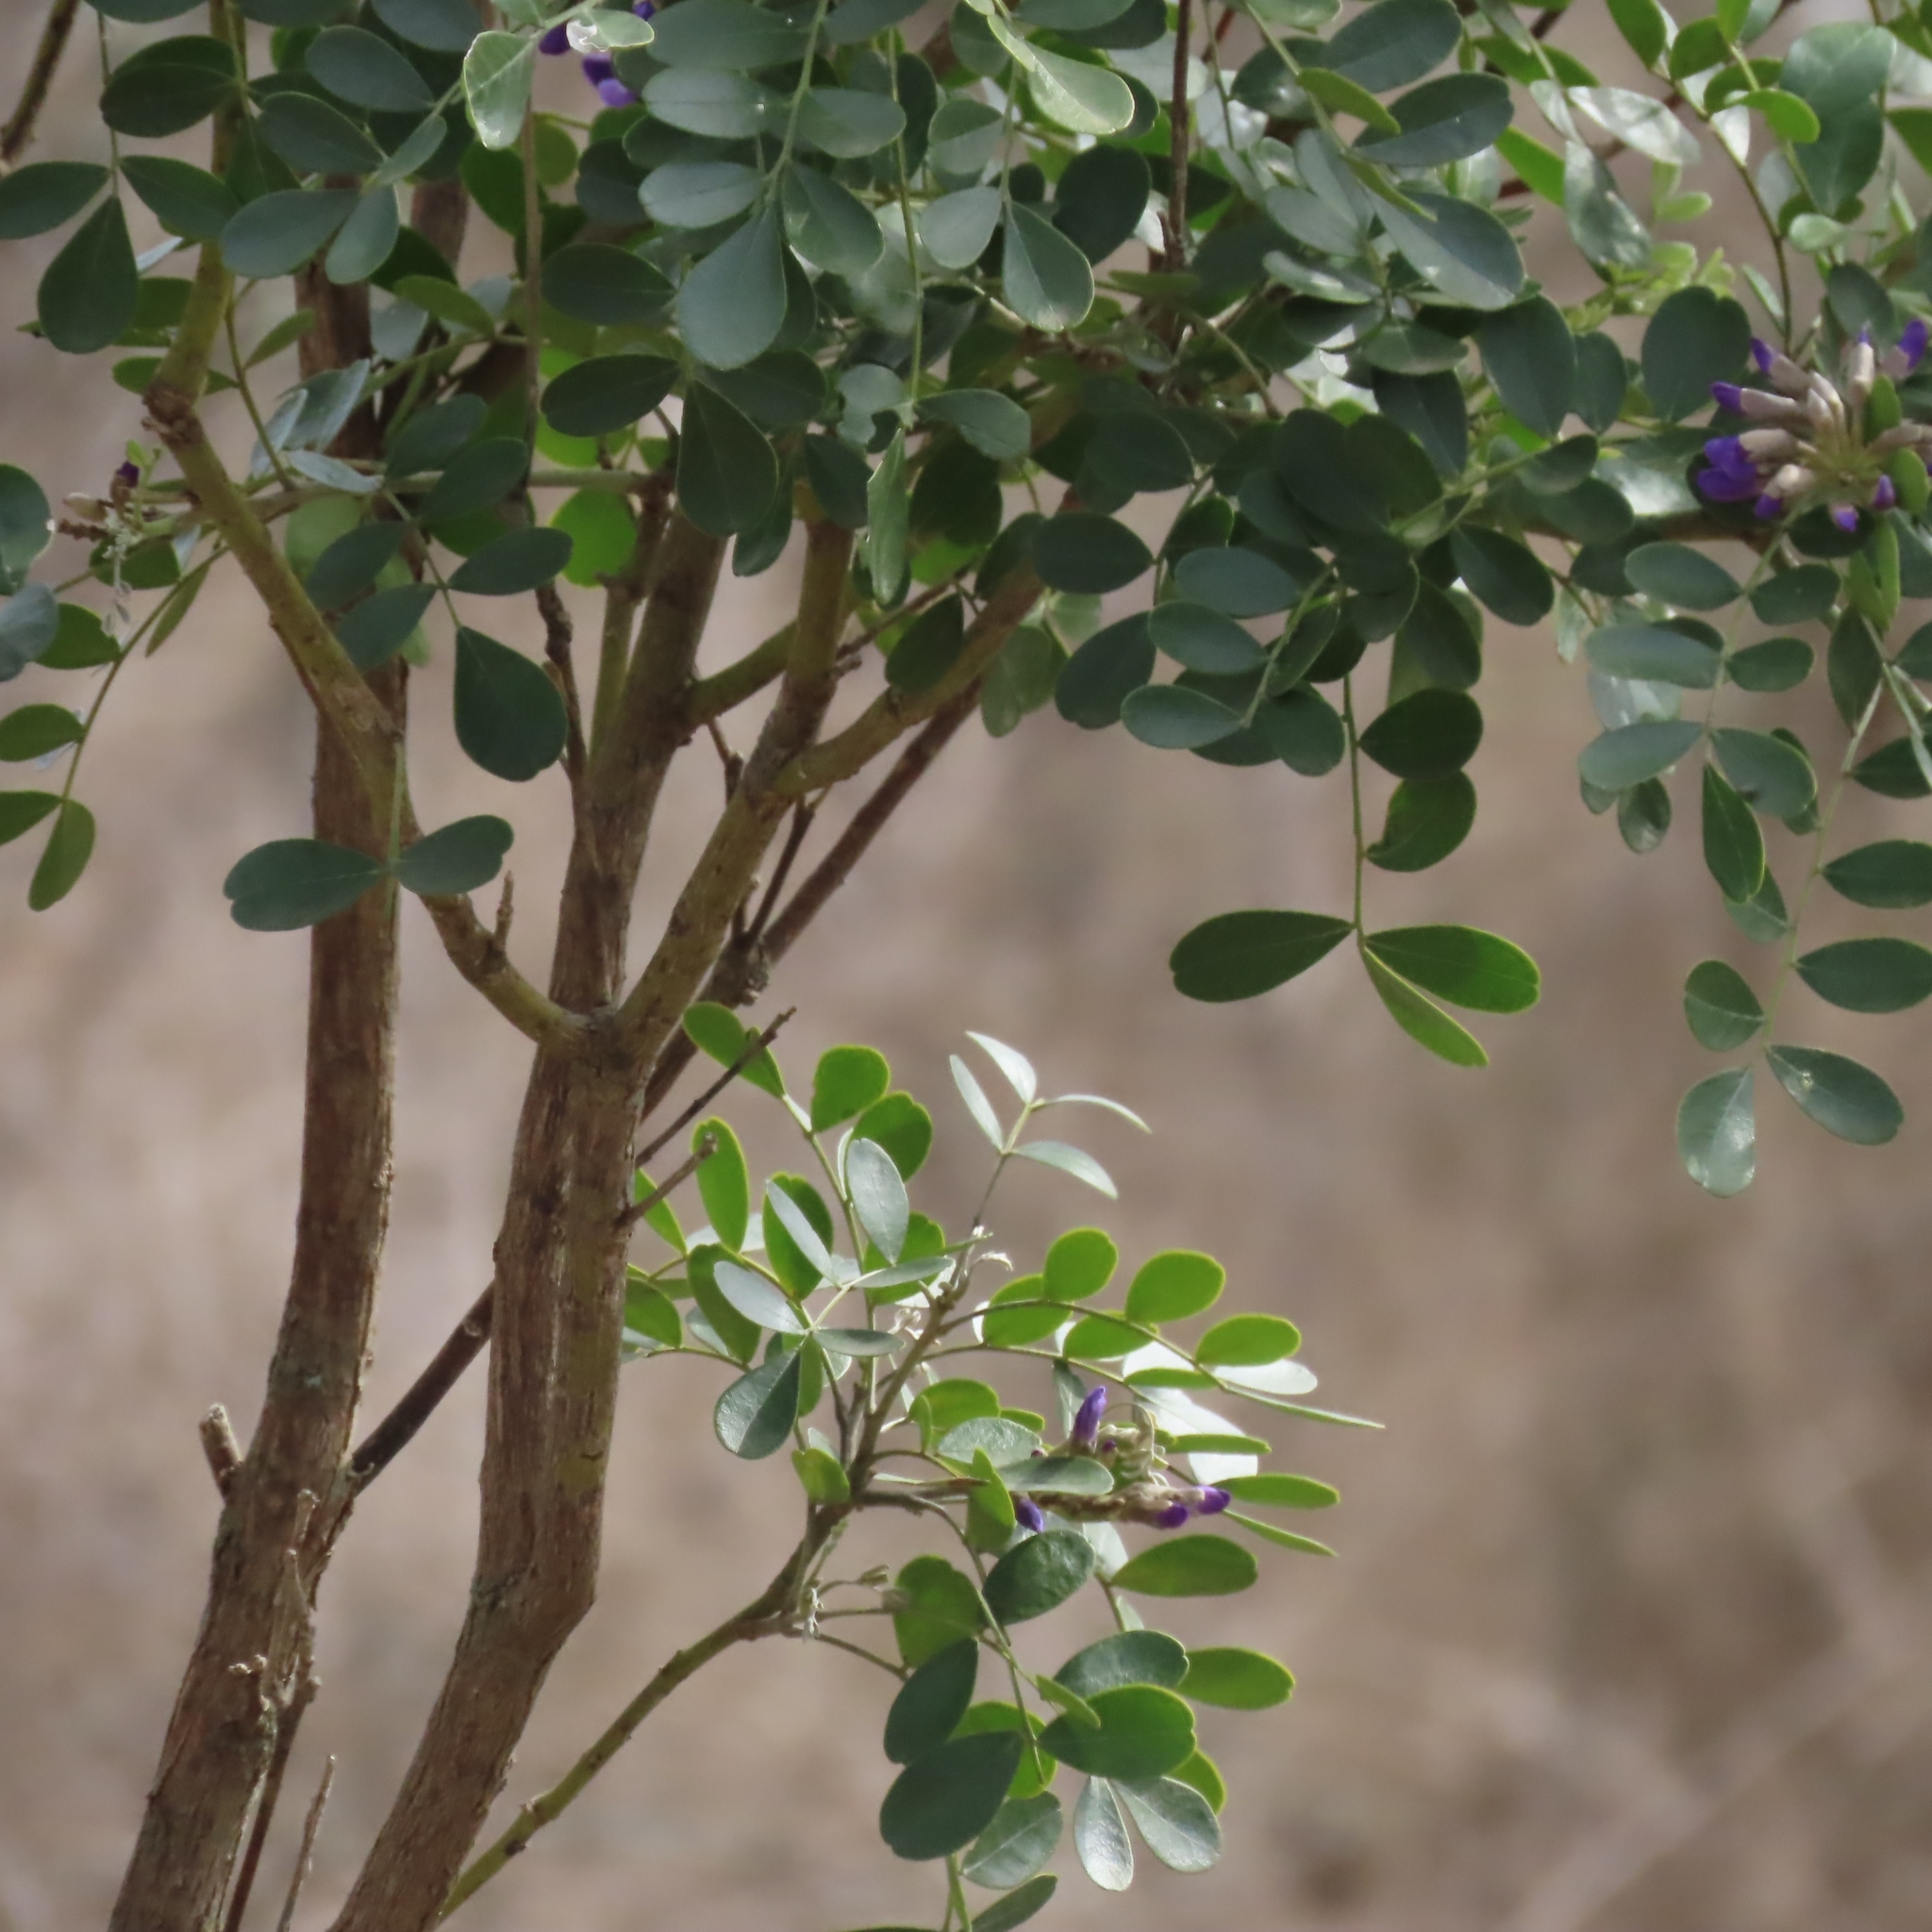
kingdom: Plantae
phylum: Tracheophyta
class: Magnoliopsida
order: Fabales
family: Fabaceae
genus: Dermatophyllum
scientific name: Dermatophyllum secundiflorum
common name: Texas-mountain-laurel
